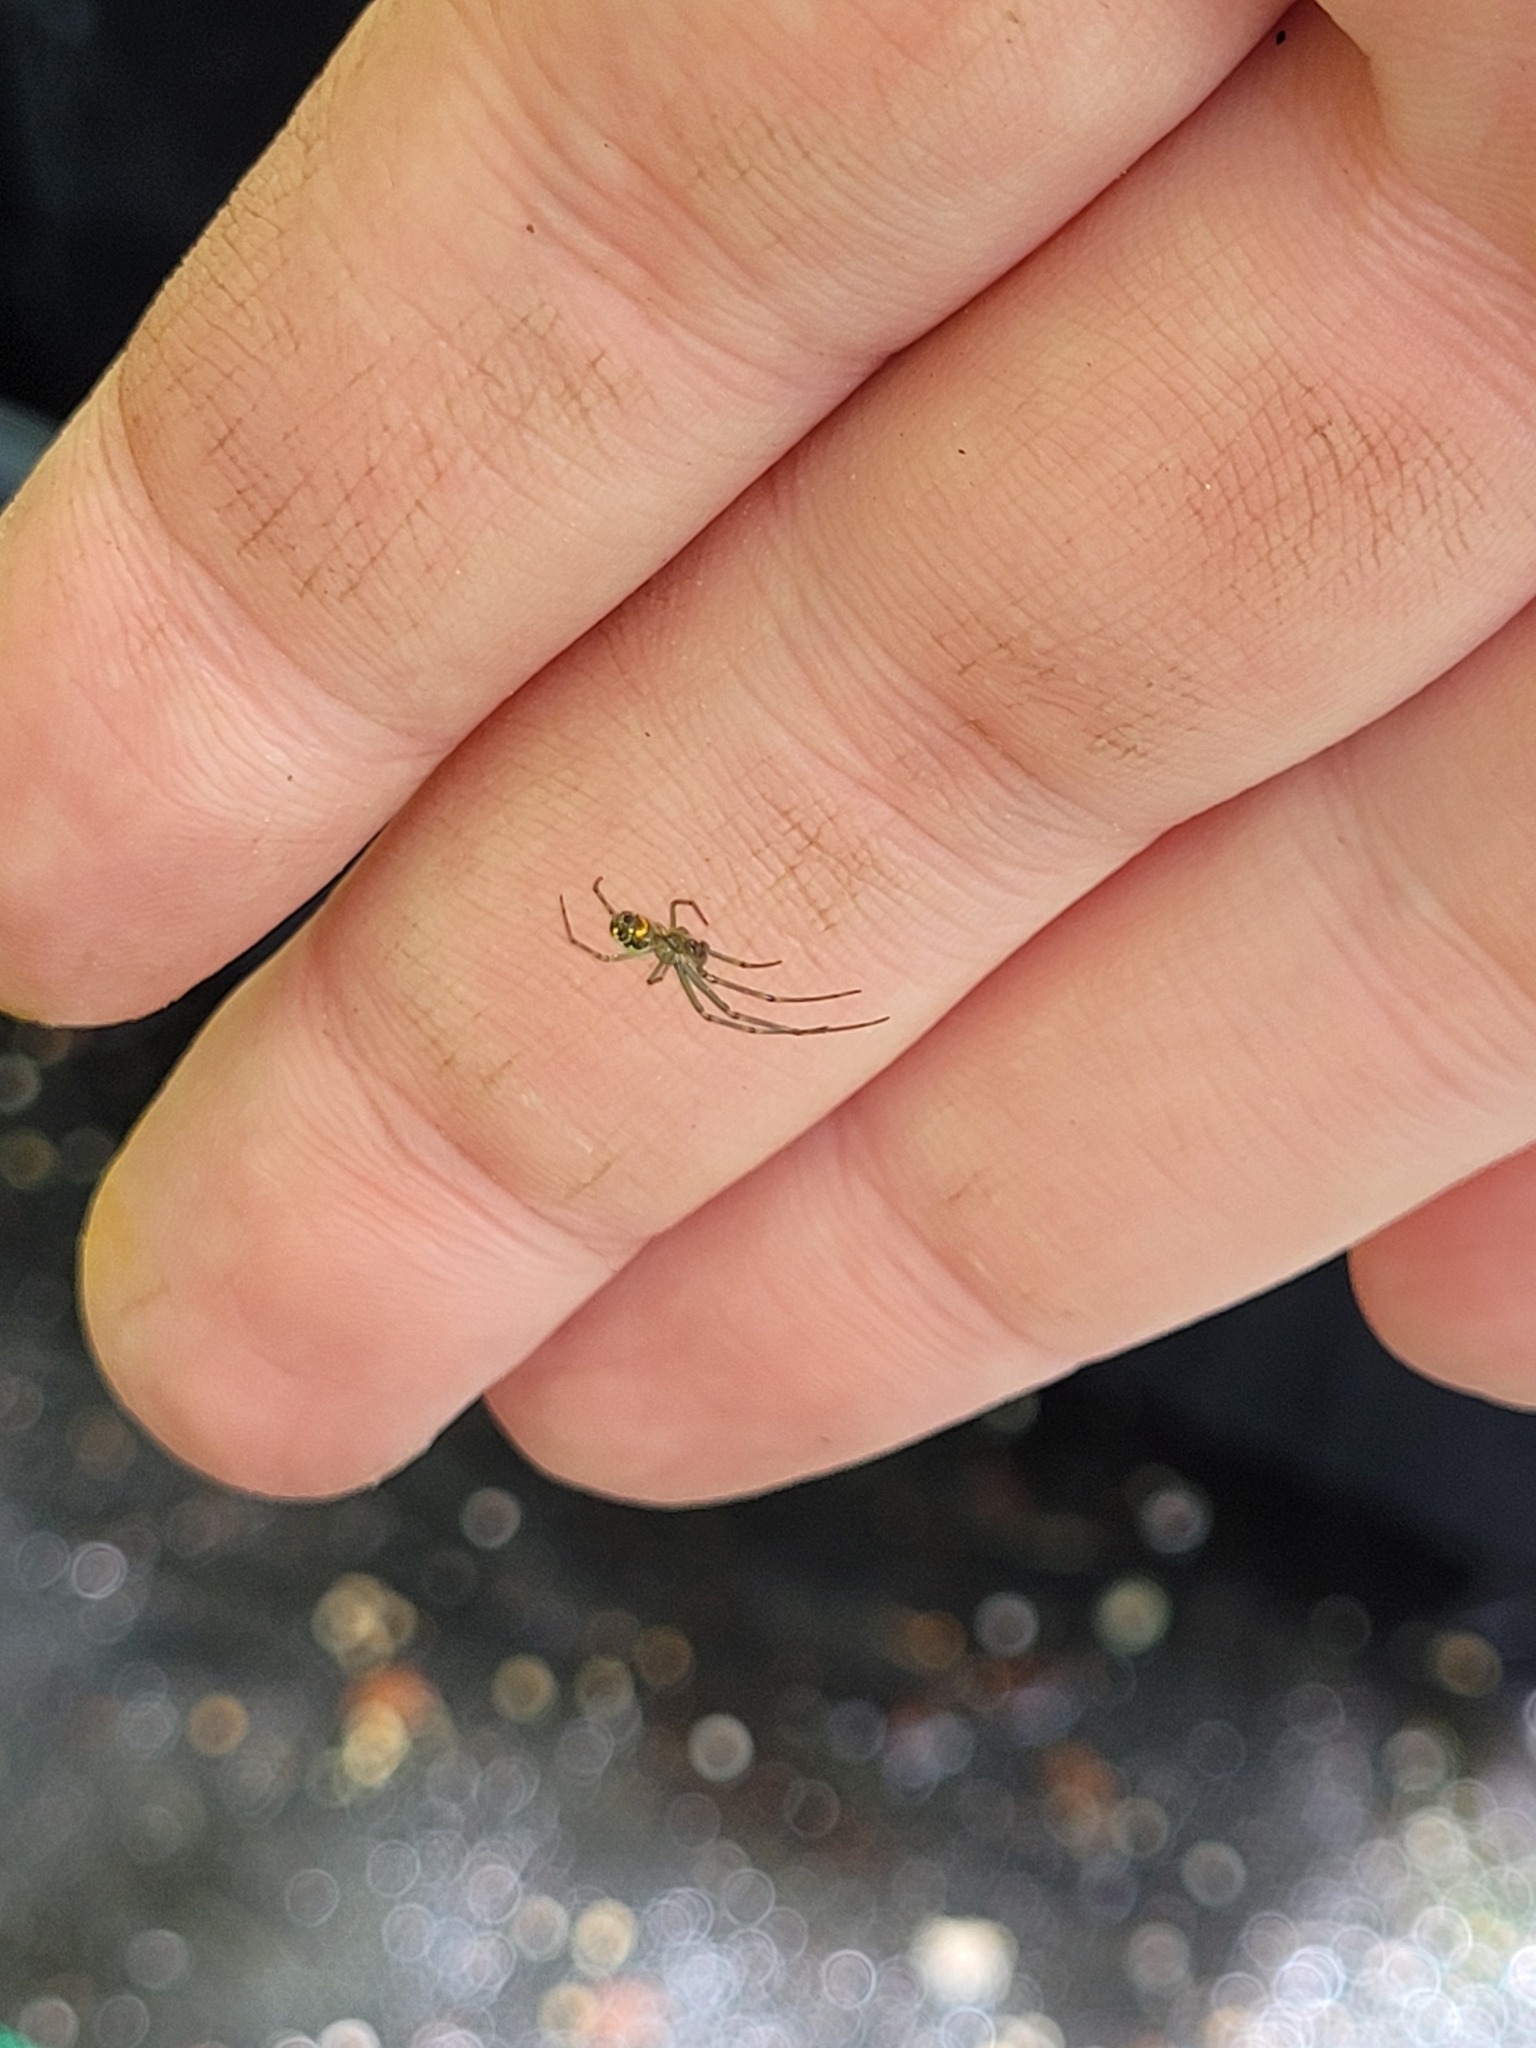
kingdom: Animalia
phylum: Arthropoda
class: Arachnida
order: Araneae
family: Tetragnathidae
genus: Leucauge
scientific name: Leucauge venusta
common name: Longjawed orb weavers
